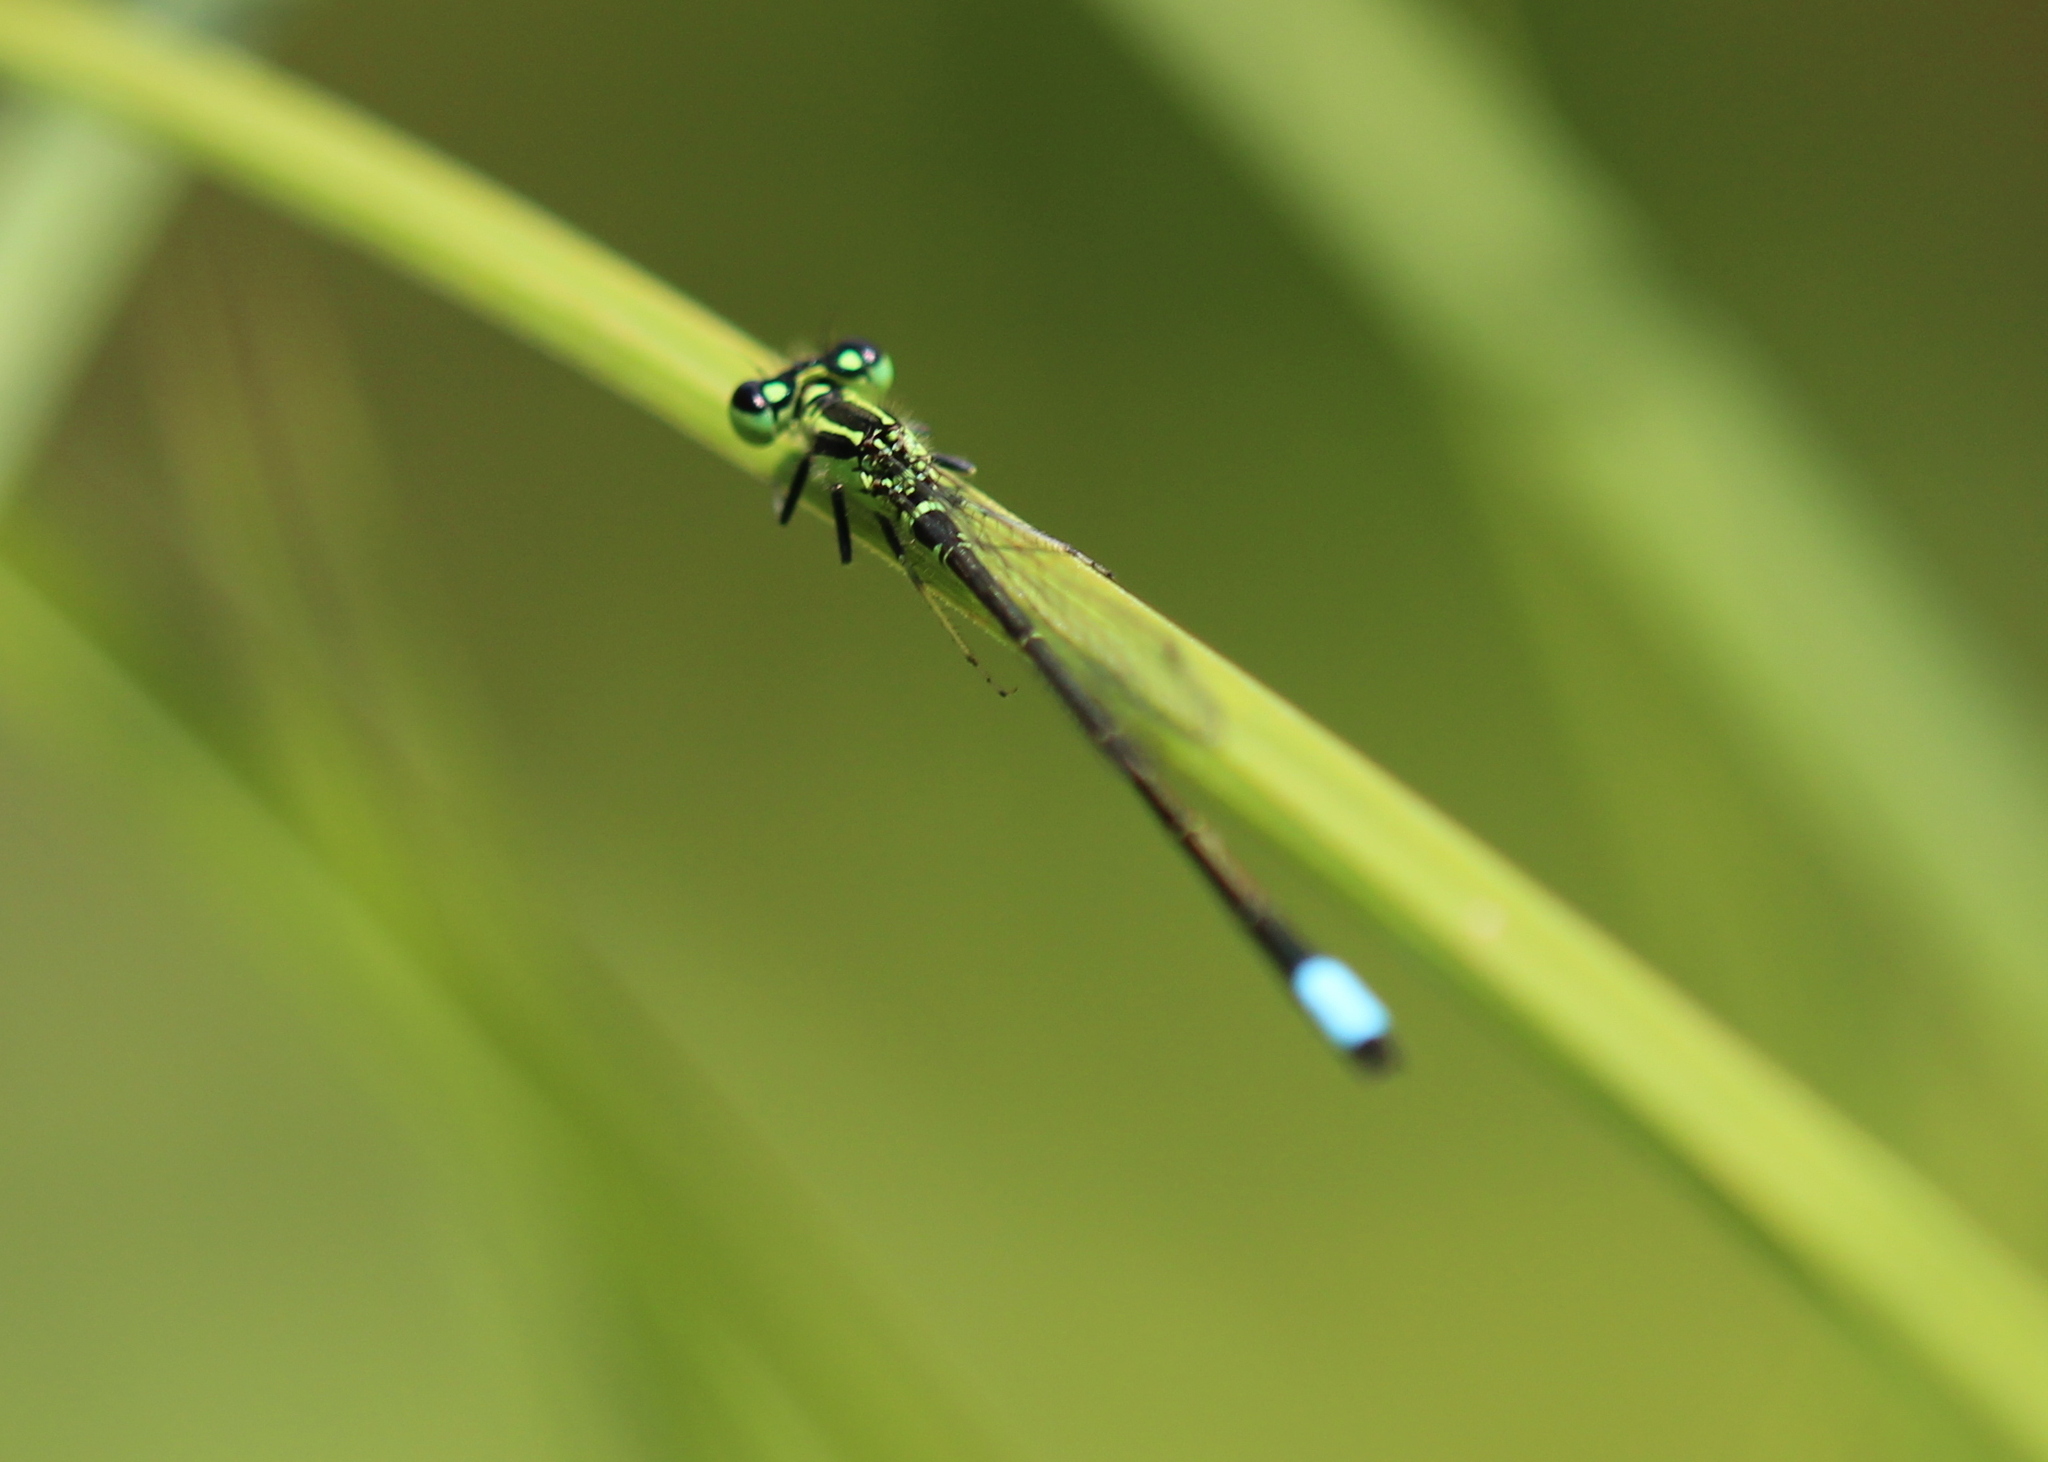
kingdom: Animalia
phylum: Arthropoda
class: Insecta
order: Odonata
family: Coenagrionidae
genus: Ischnura
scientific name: Ischnura verticalis
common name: Eastern forktail
